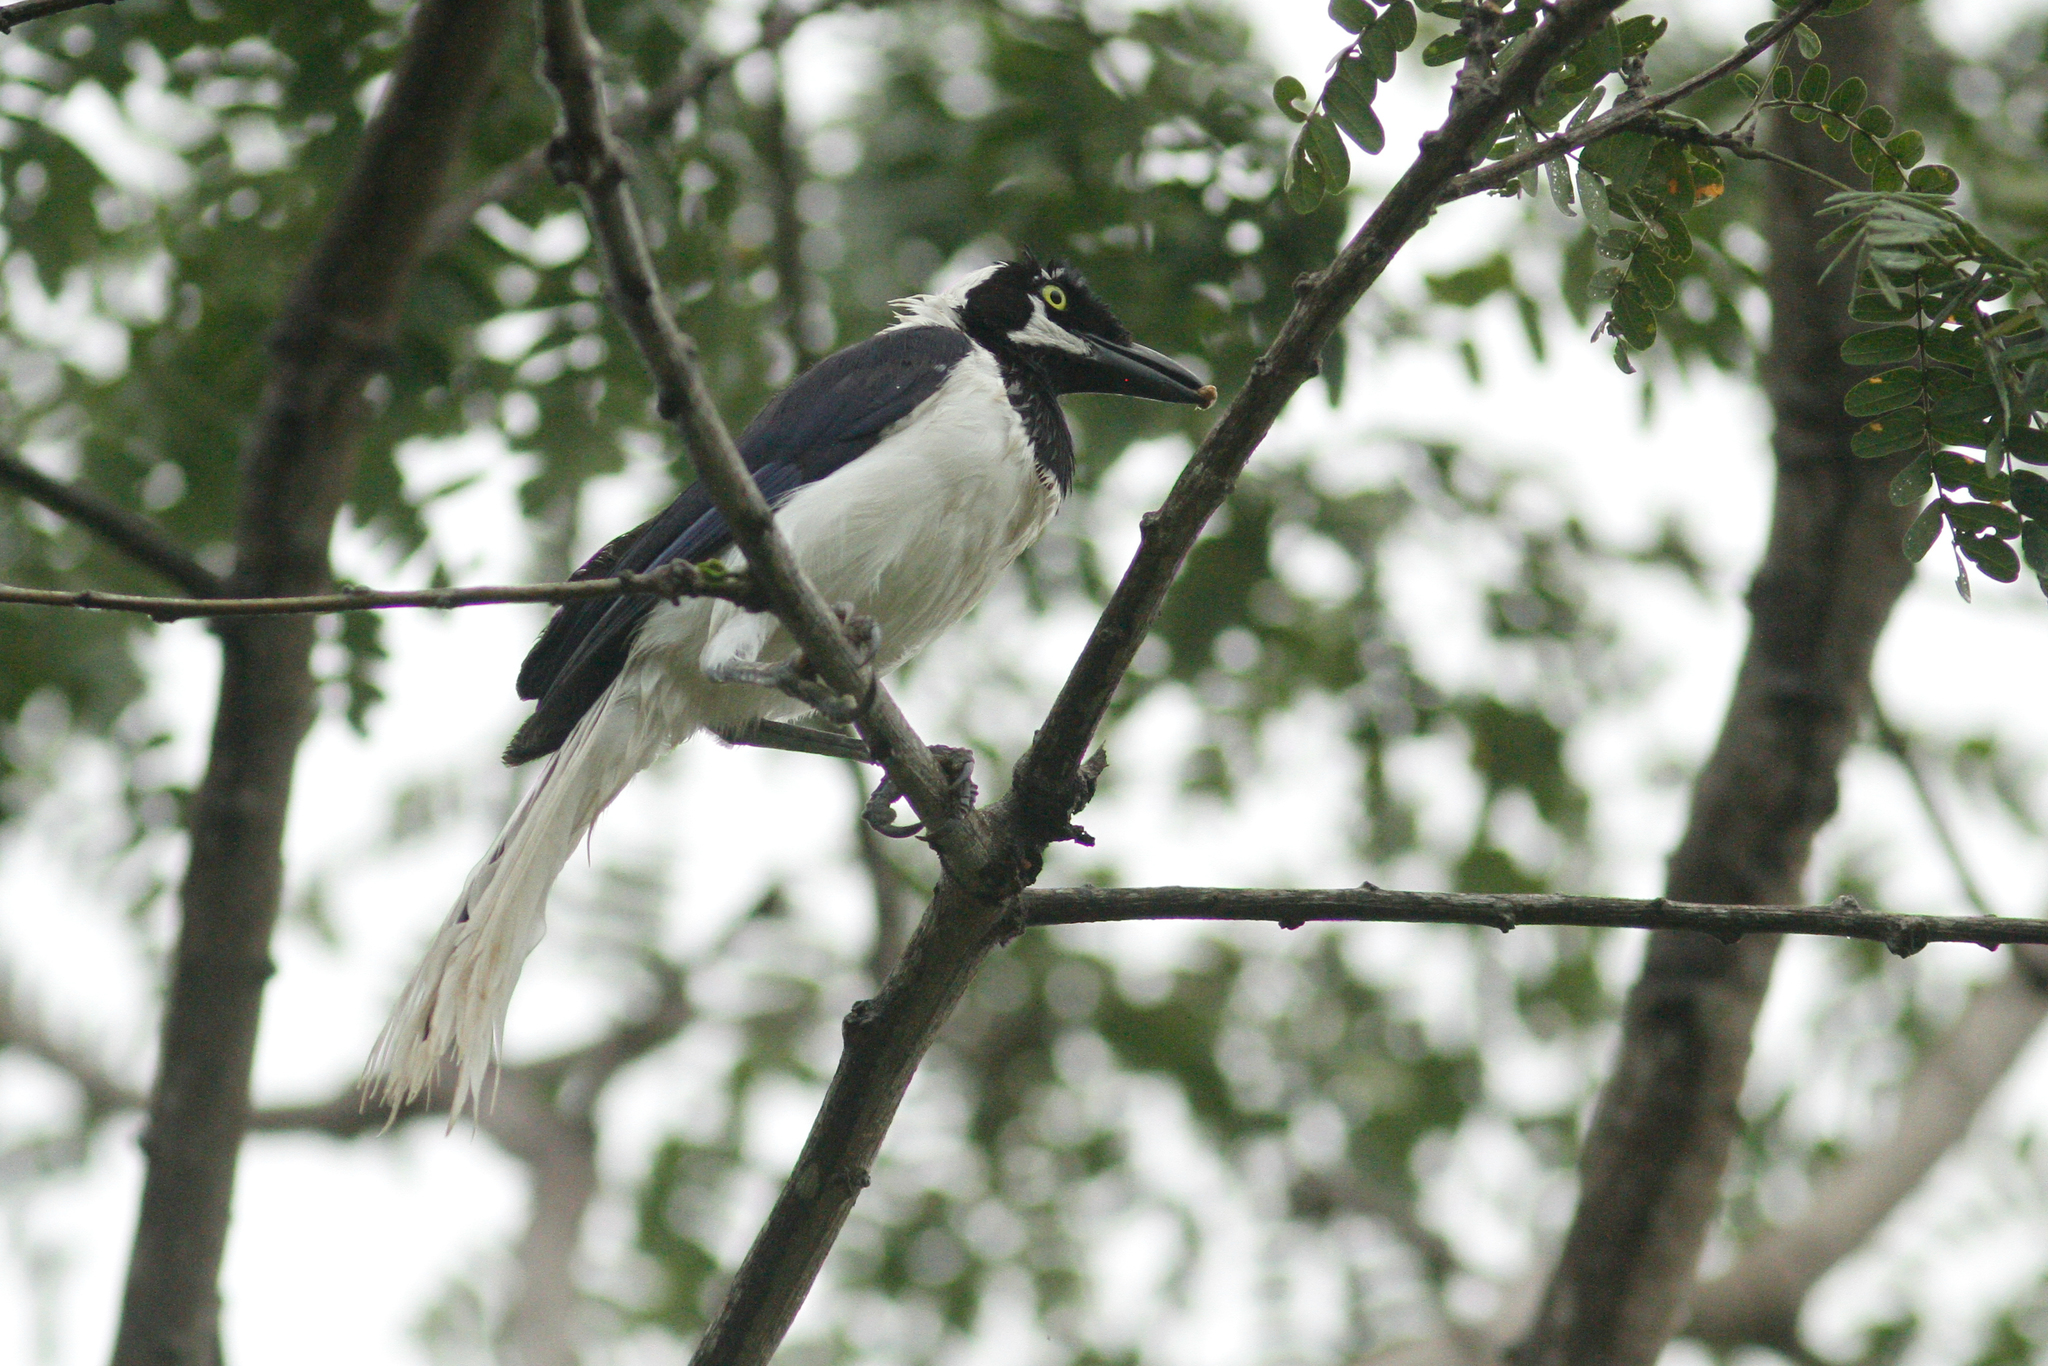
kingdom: Animalia
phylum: Chordata
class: Aves
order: Passeriformes
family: Corvidae
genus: Cyanocorax
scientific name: Cyanocorax mystacalis
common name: White-tailed jay
